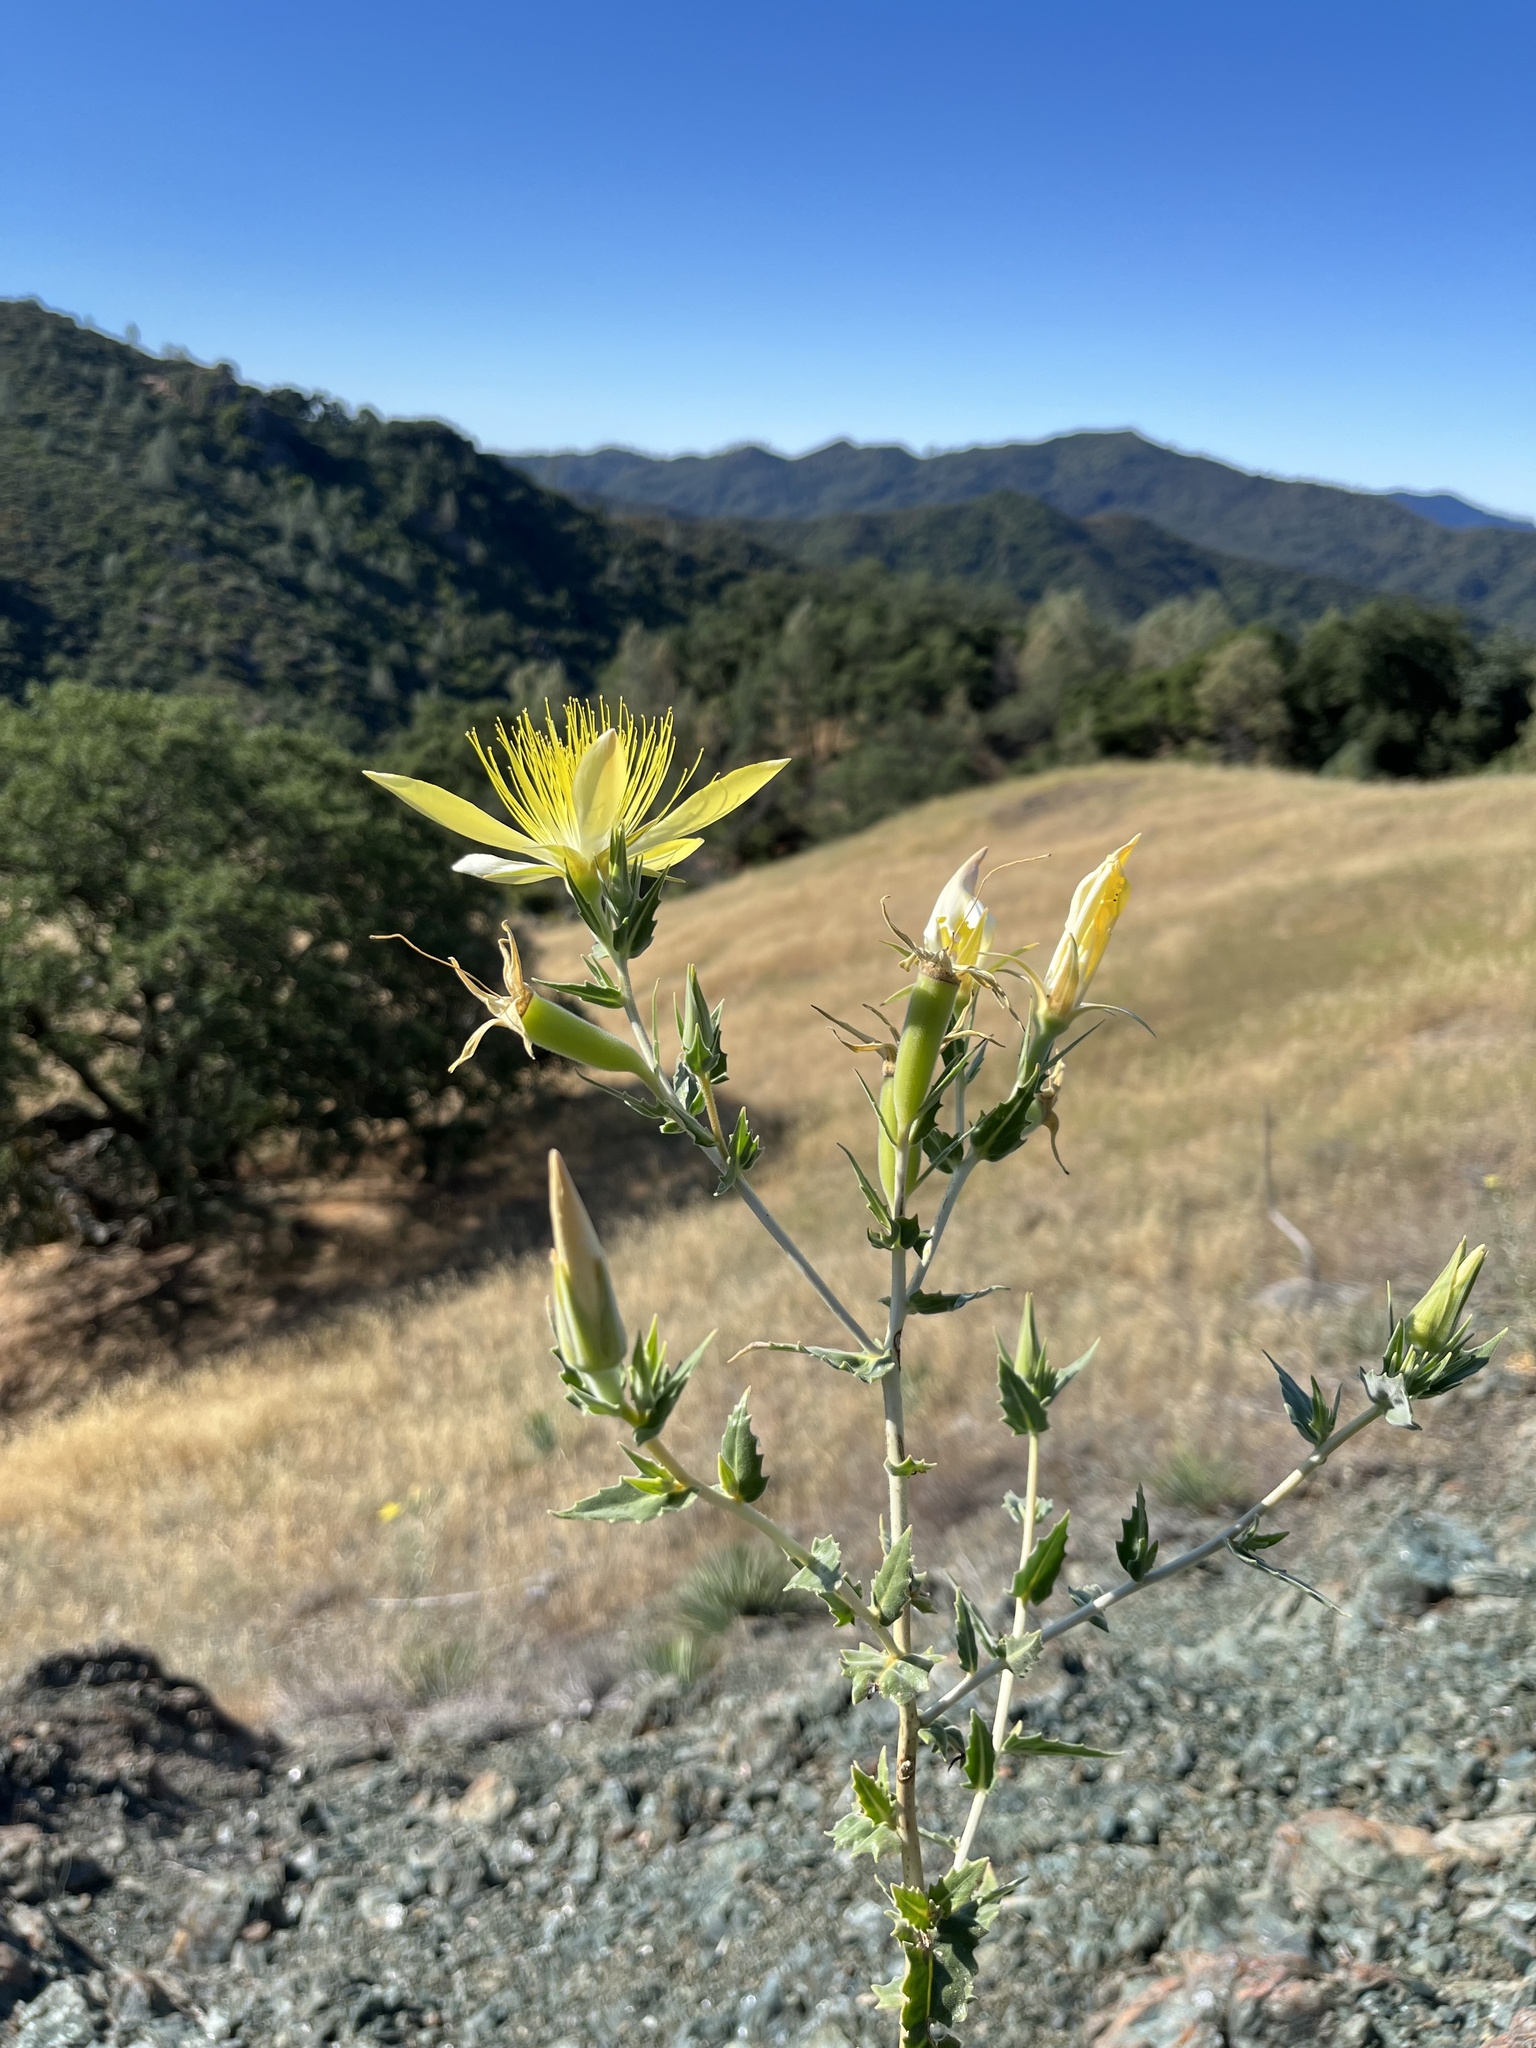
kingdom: Plantae
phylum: Tracheophyta
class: Magnoliopsida
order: Cornales
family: Loasaceae
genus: Mentzelia
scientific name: Mentzelia laevicaulis
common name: Smooth-stem blazingstar
